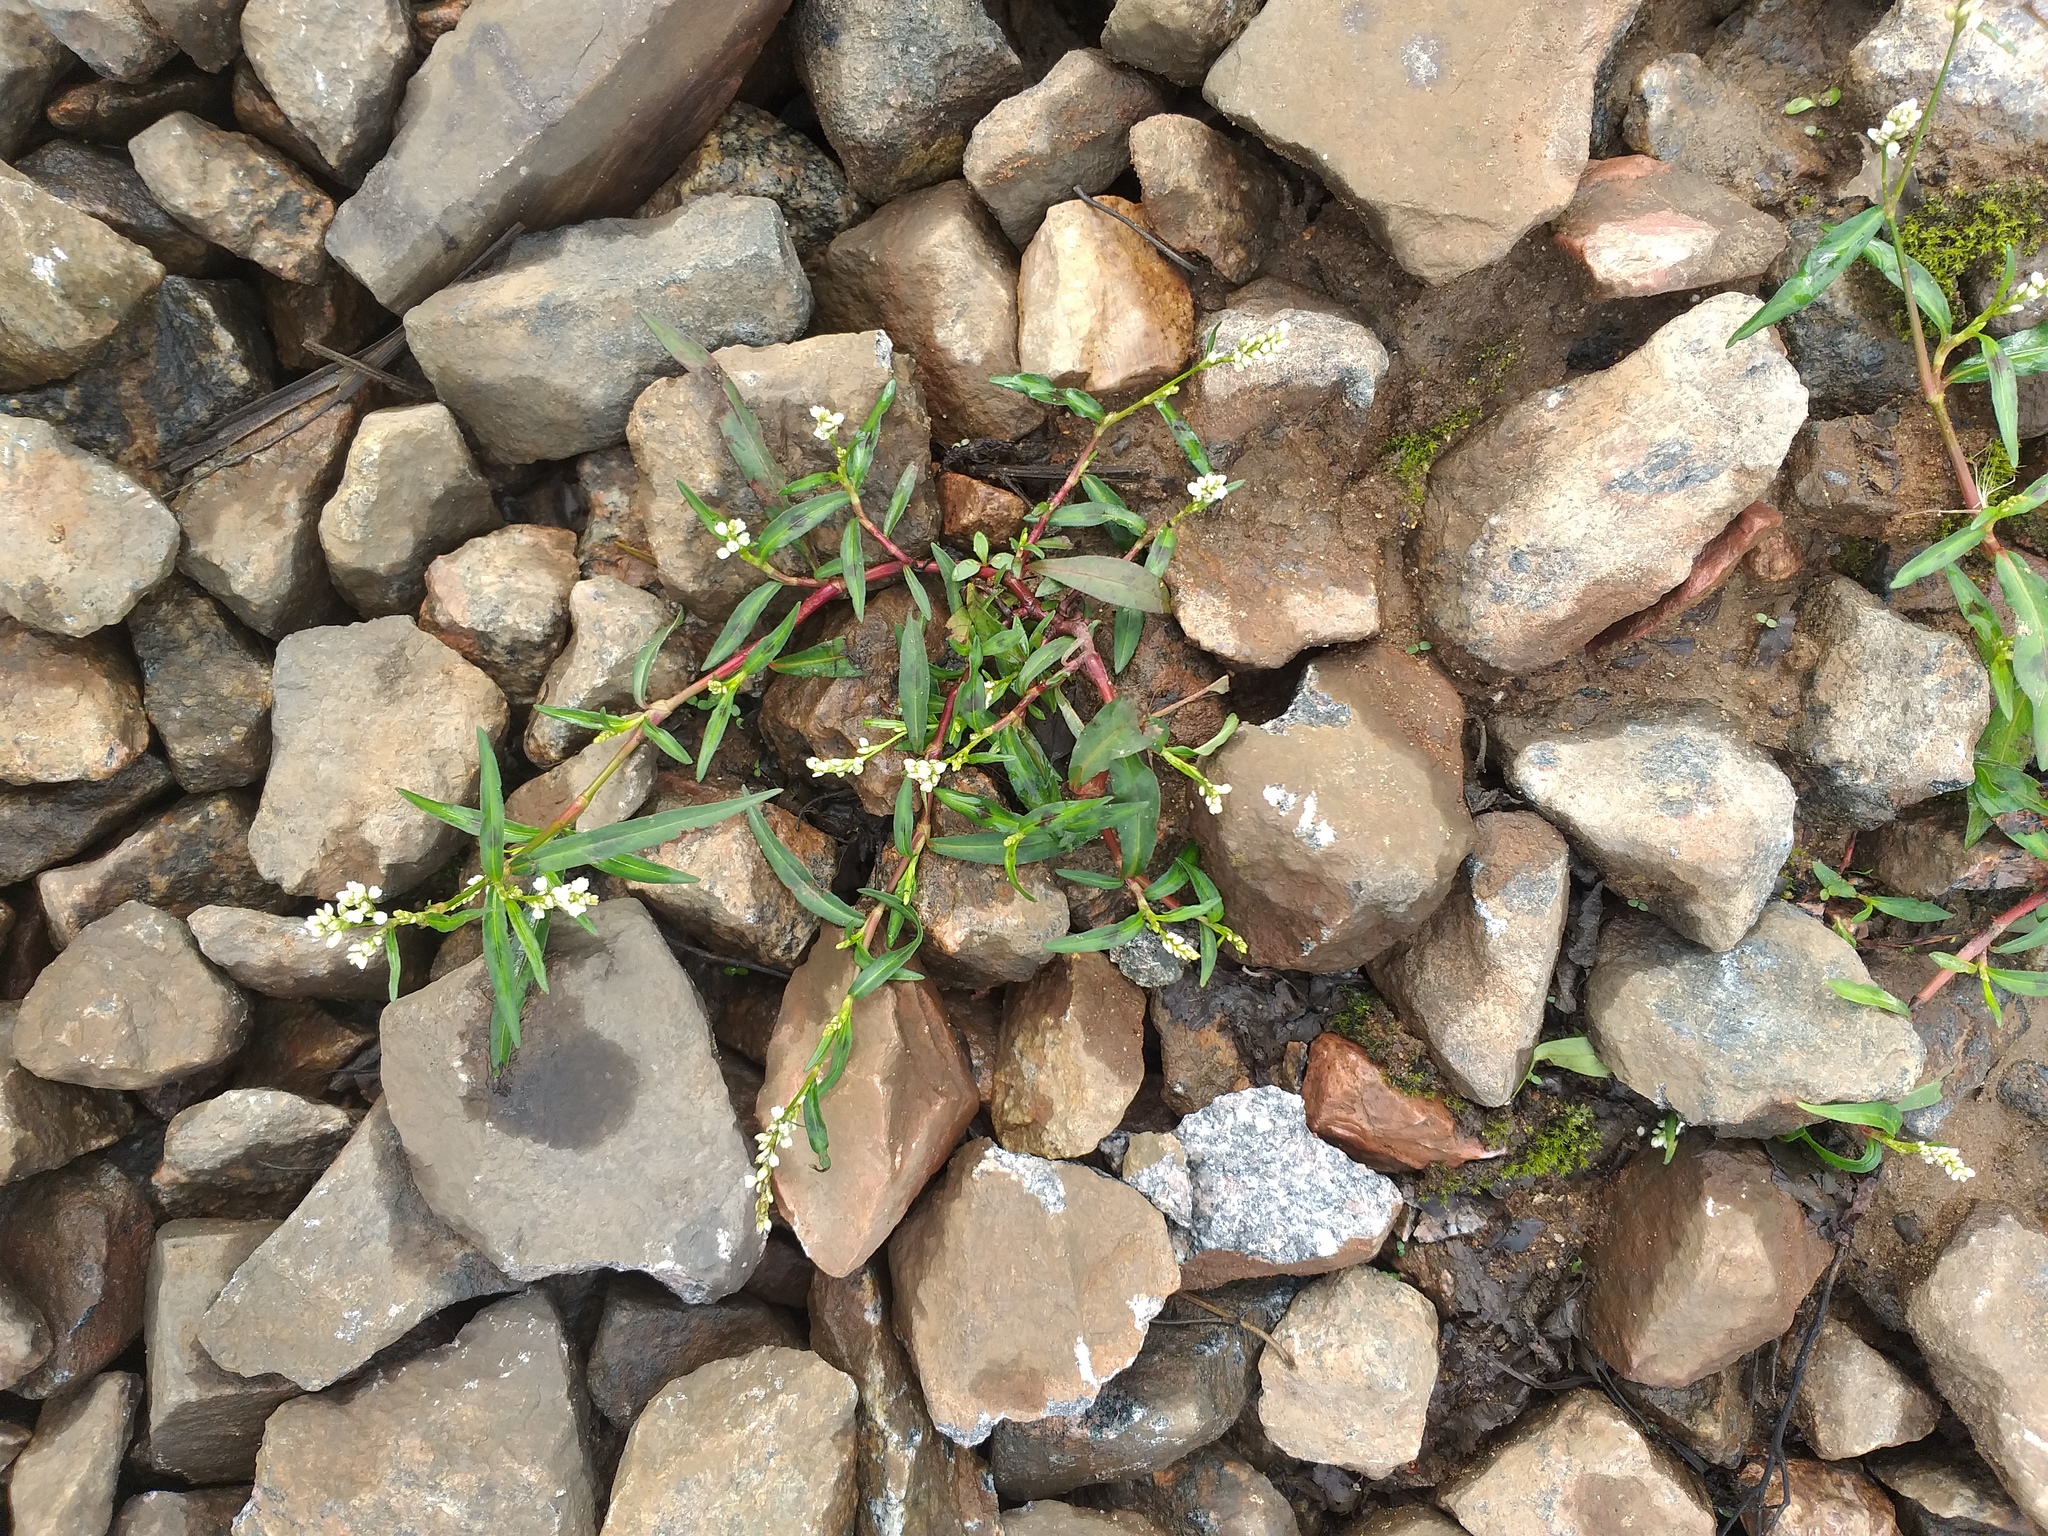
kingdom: Plantae
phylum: Tracheophyta
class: Magnoliopsida
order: Caryophyllales
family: Polygonaceae
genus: Persicaria
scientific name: Persicaria maculosa
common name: Redshank
